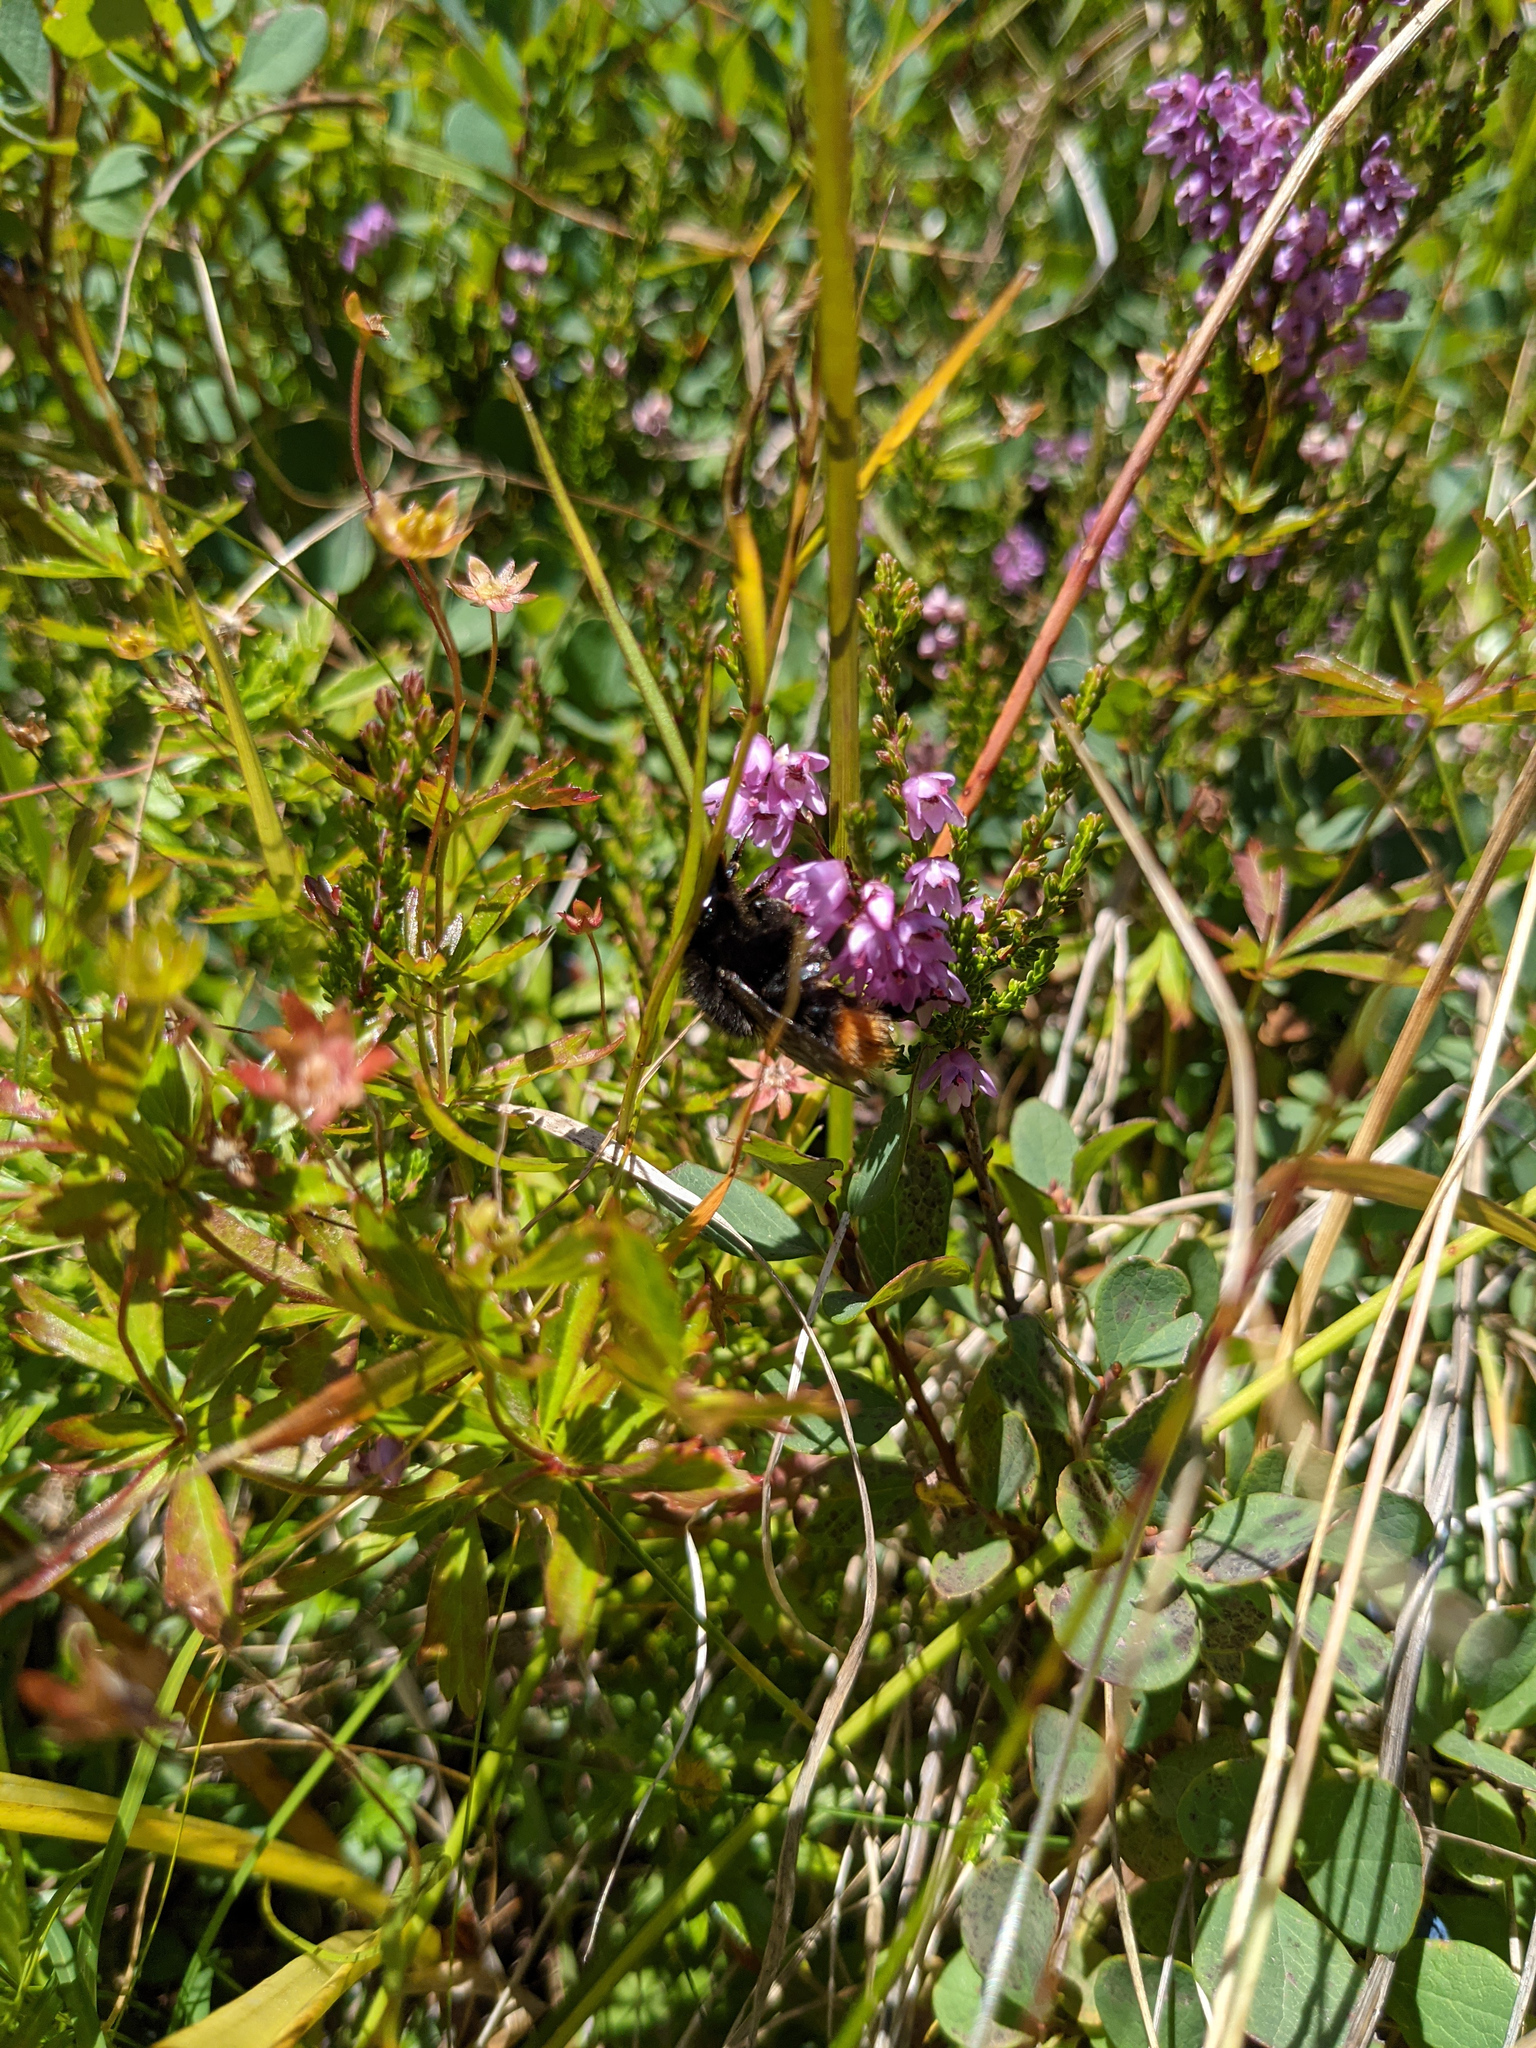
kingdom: Plantae
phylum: Tracheophyta
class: Magnoliopsida
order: Ericales
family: Ericaceae
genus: Calluna
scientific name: Calluna vulgaris
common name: Heather
